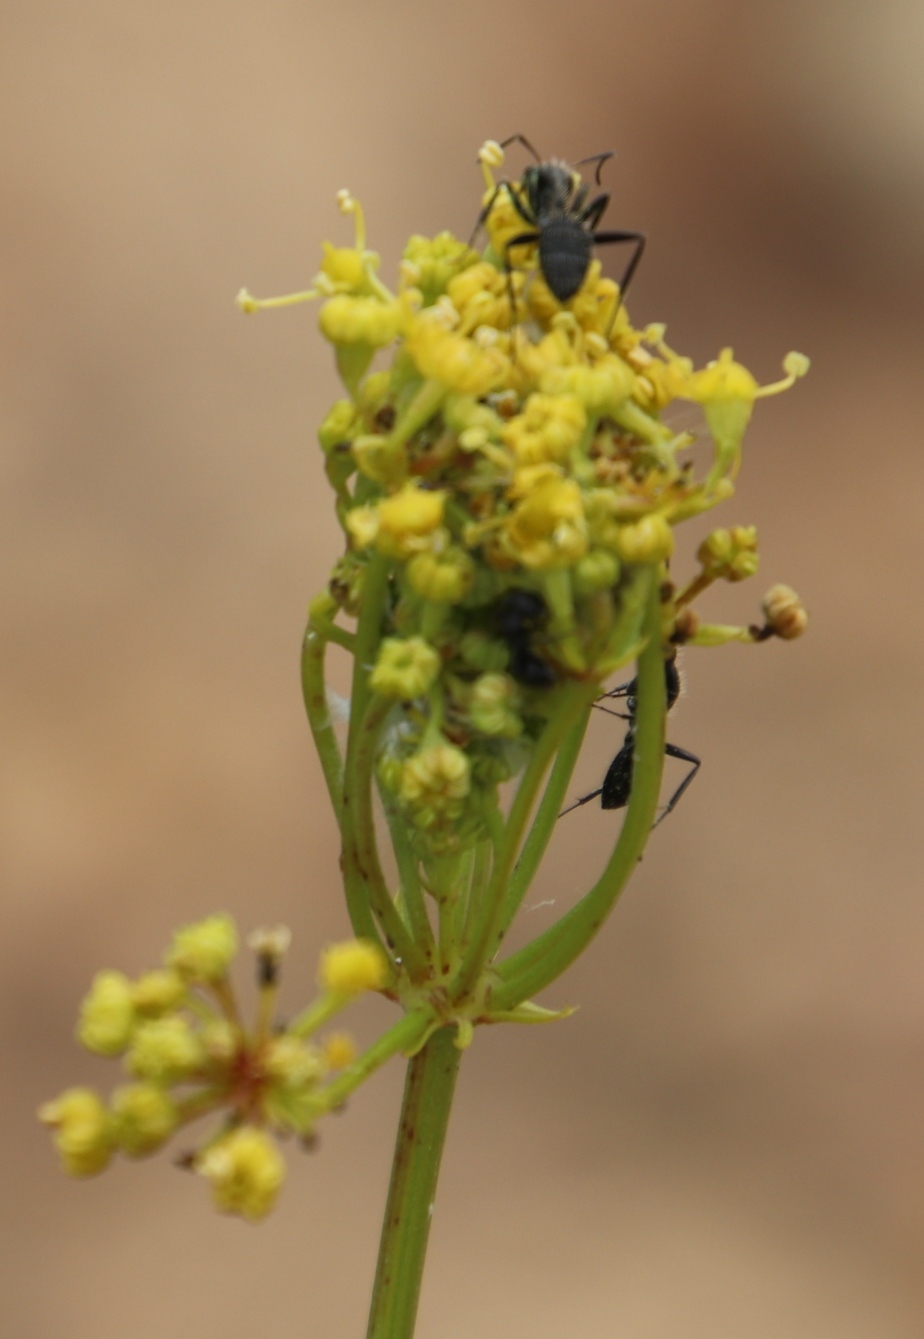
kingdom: Animalia
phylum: Arthropoda
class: Insecta
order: Hymenoptera
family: Formicidae
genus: Camponotus
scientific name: Camponotus niveosetosus
